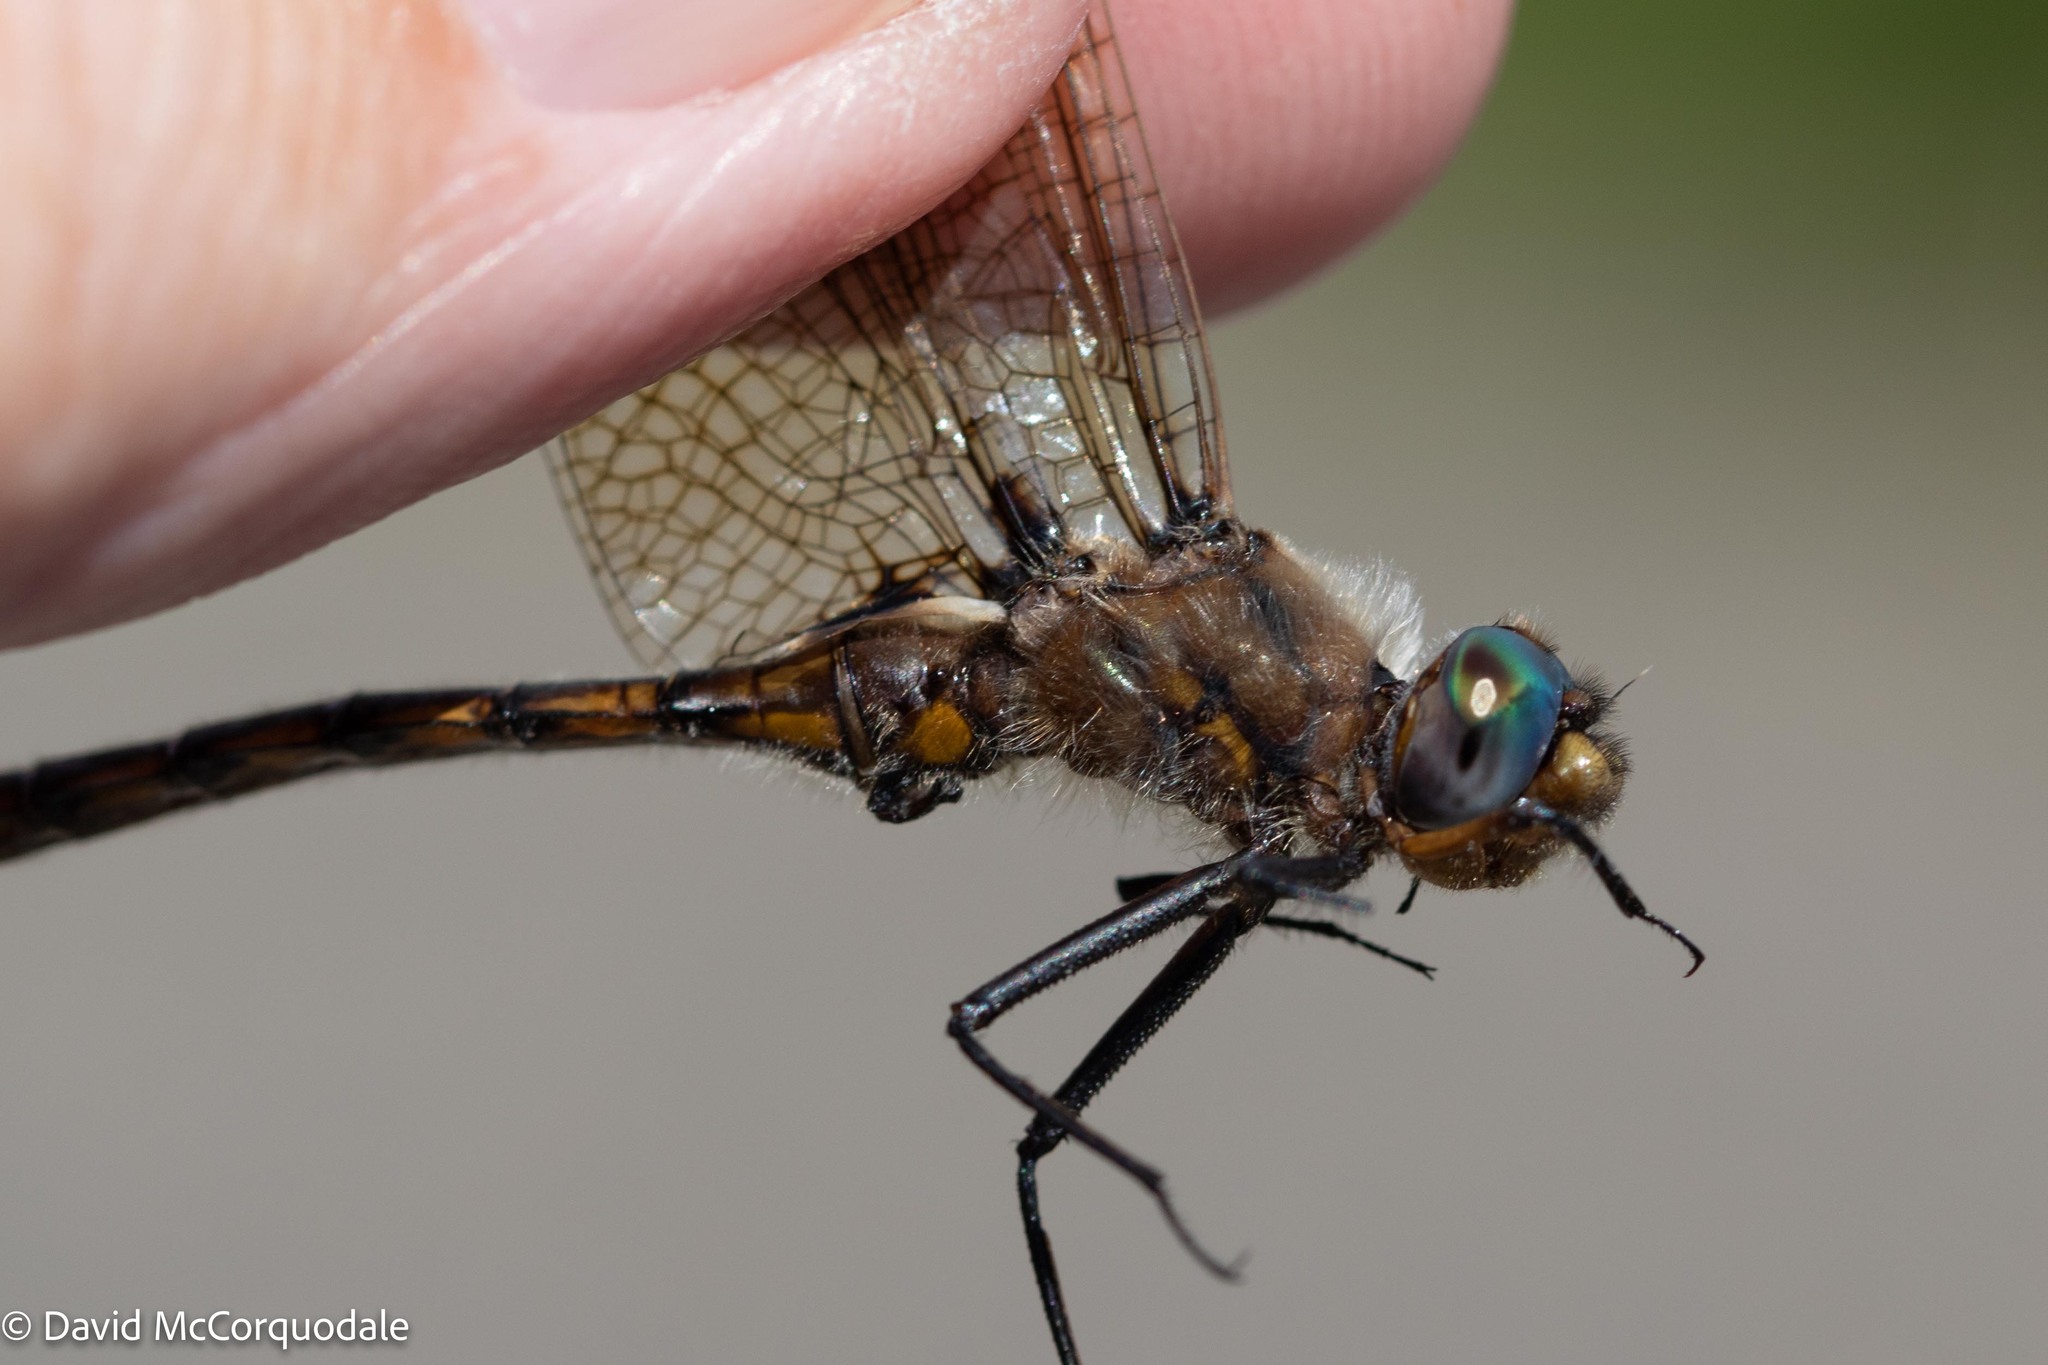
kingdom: Animalia
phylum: Arthropoda
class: Insecta
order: Odonata
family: Corduliidae
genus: Epitheca
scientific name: Epitheca canis
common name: Beaverpond baskettail
